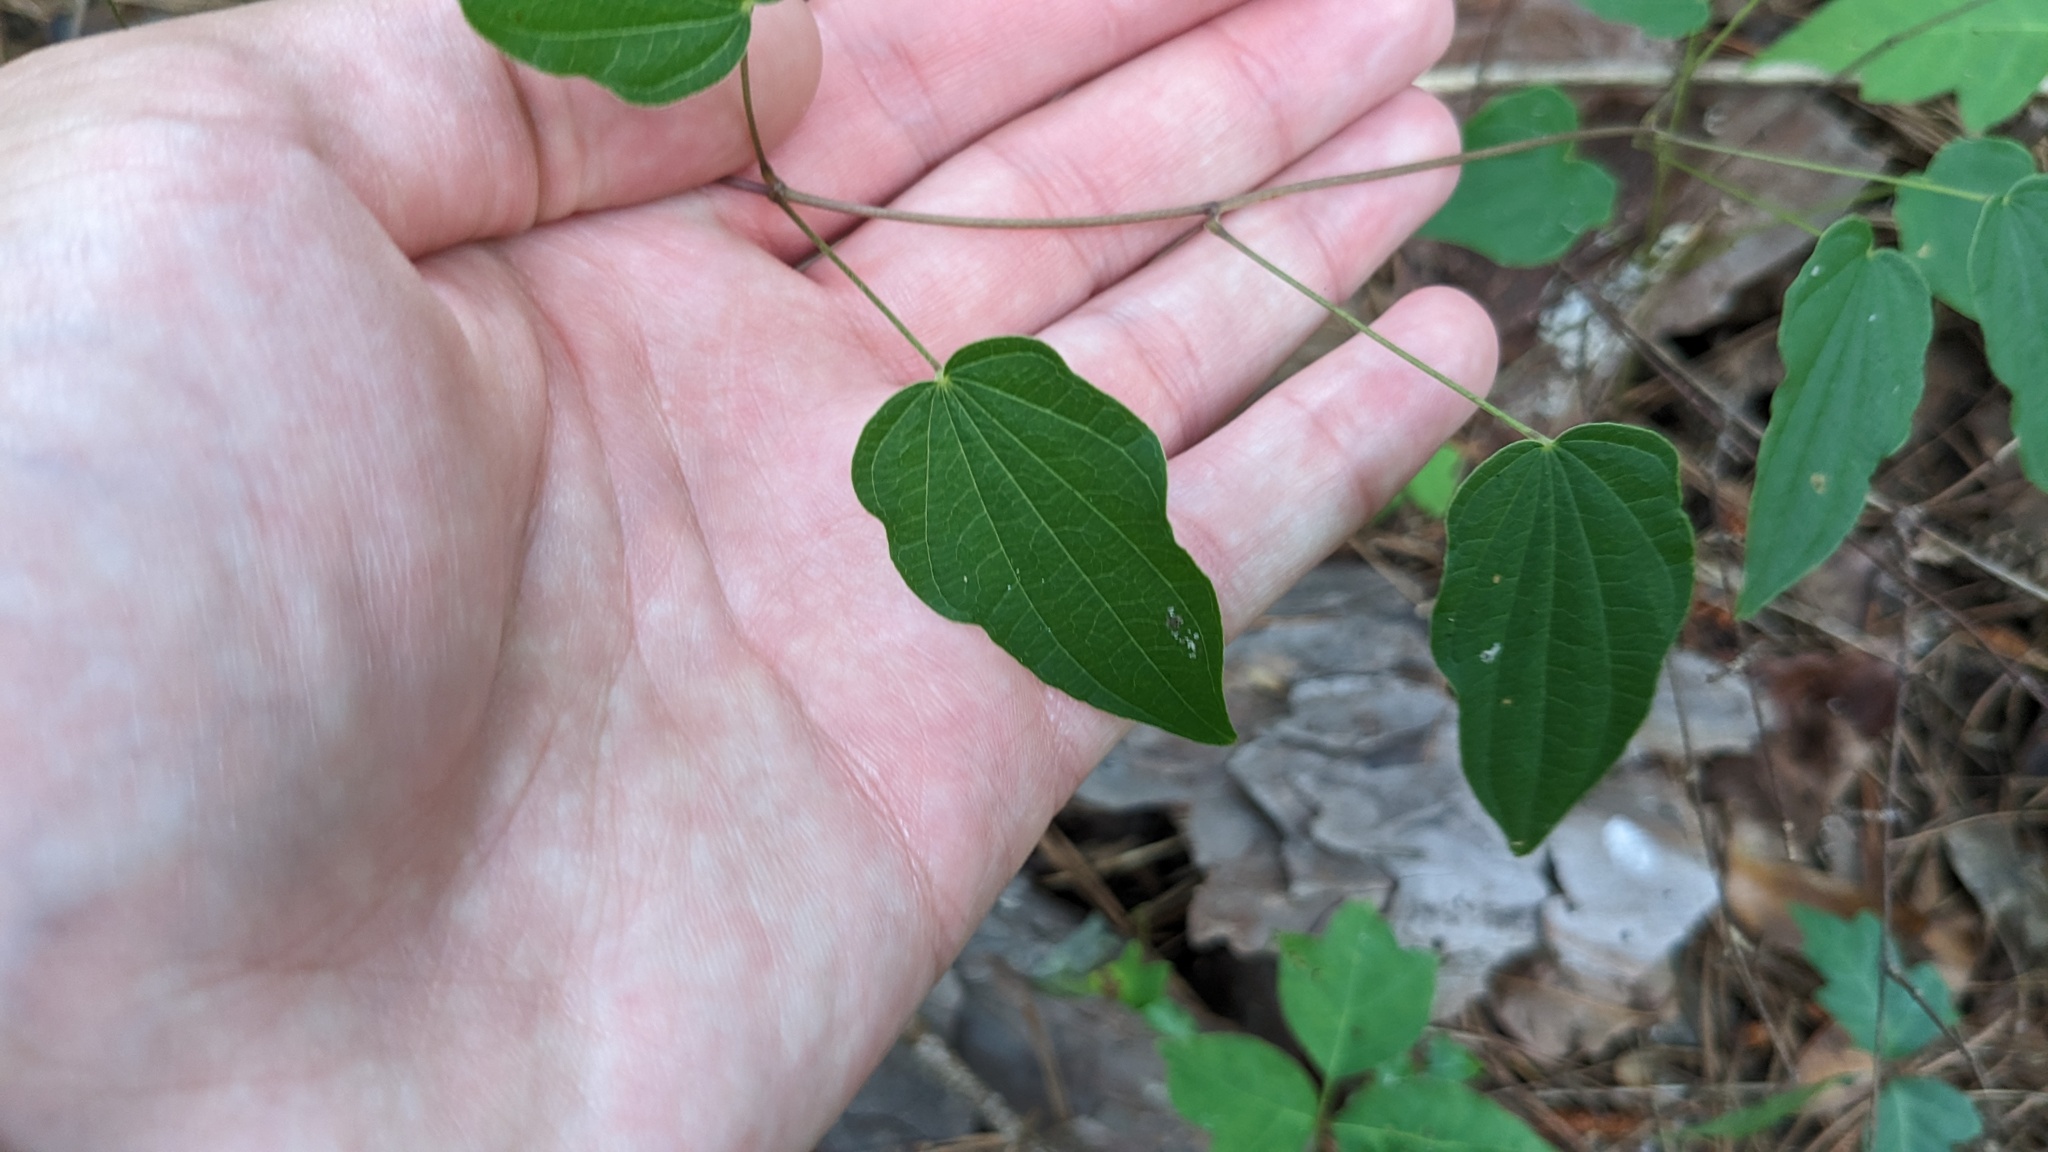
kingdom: Plantae
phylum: Tracheophyta
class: Liliopsida
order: Dioscoreales
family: Dioscoreaceae
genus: Dioscorea
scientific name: Dioscorea villosa
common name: Wild yam
